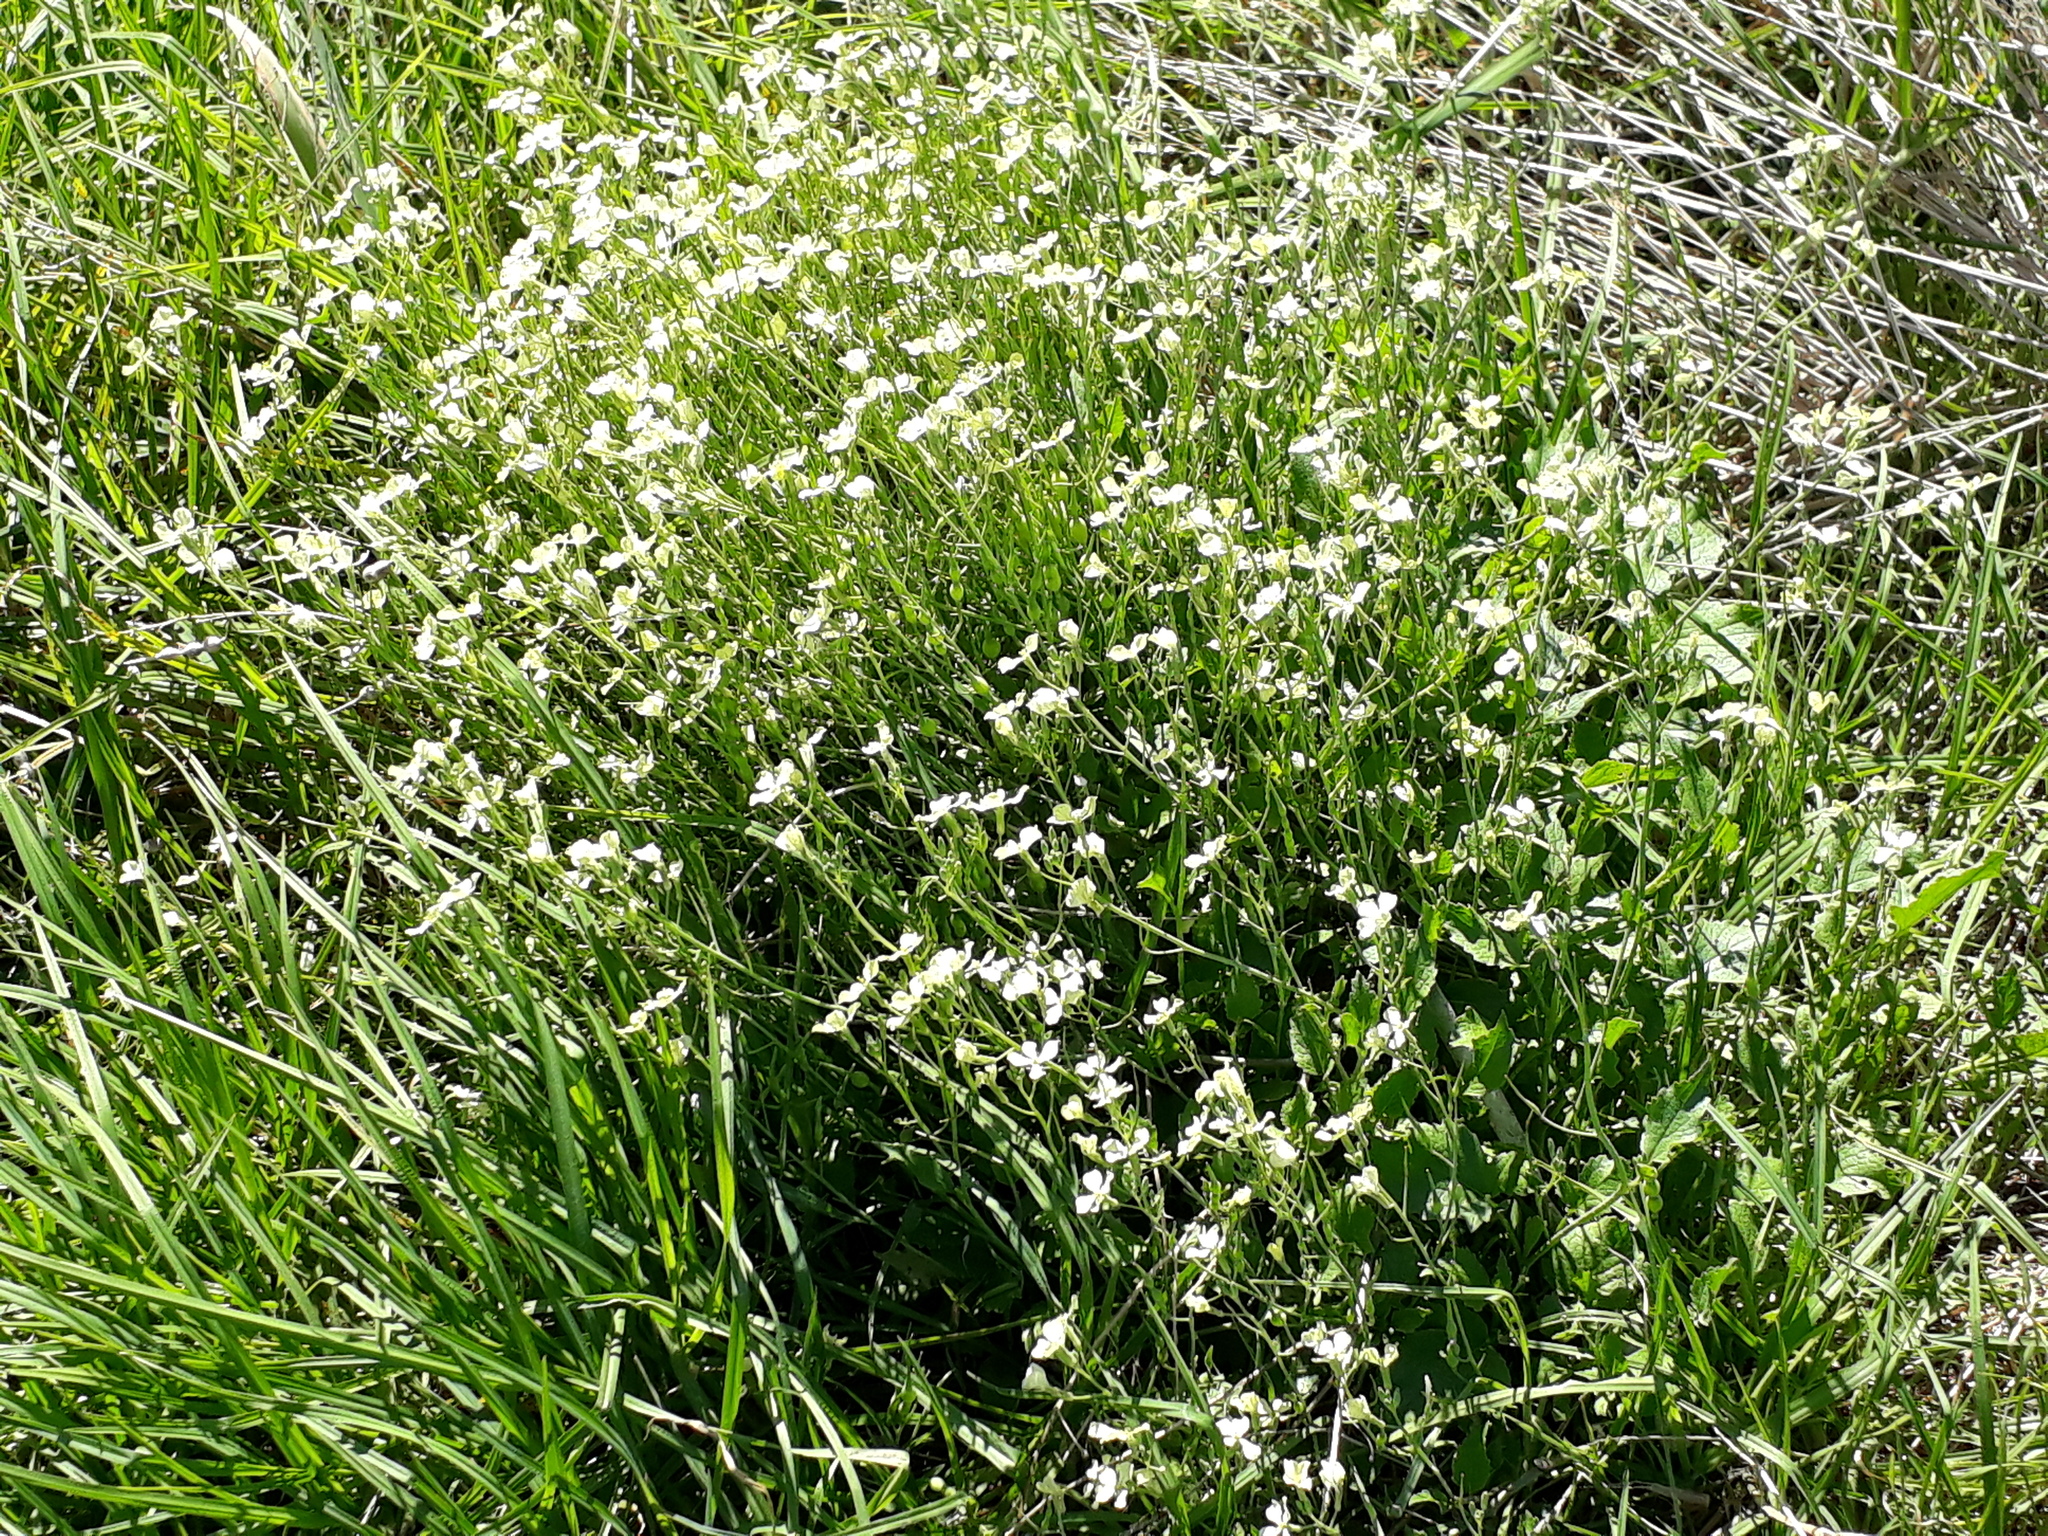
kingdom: Plantae
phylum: Tracheophyta
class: Magnoliopsida
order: Brassicales
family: Brassicaceae
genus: Raphanus
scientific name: Raphanus raphanistrum
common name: Wild radish
